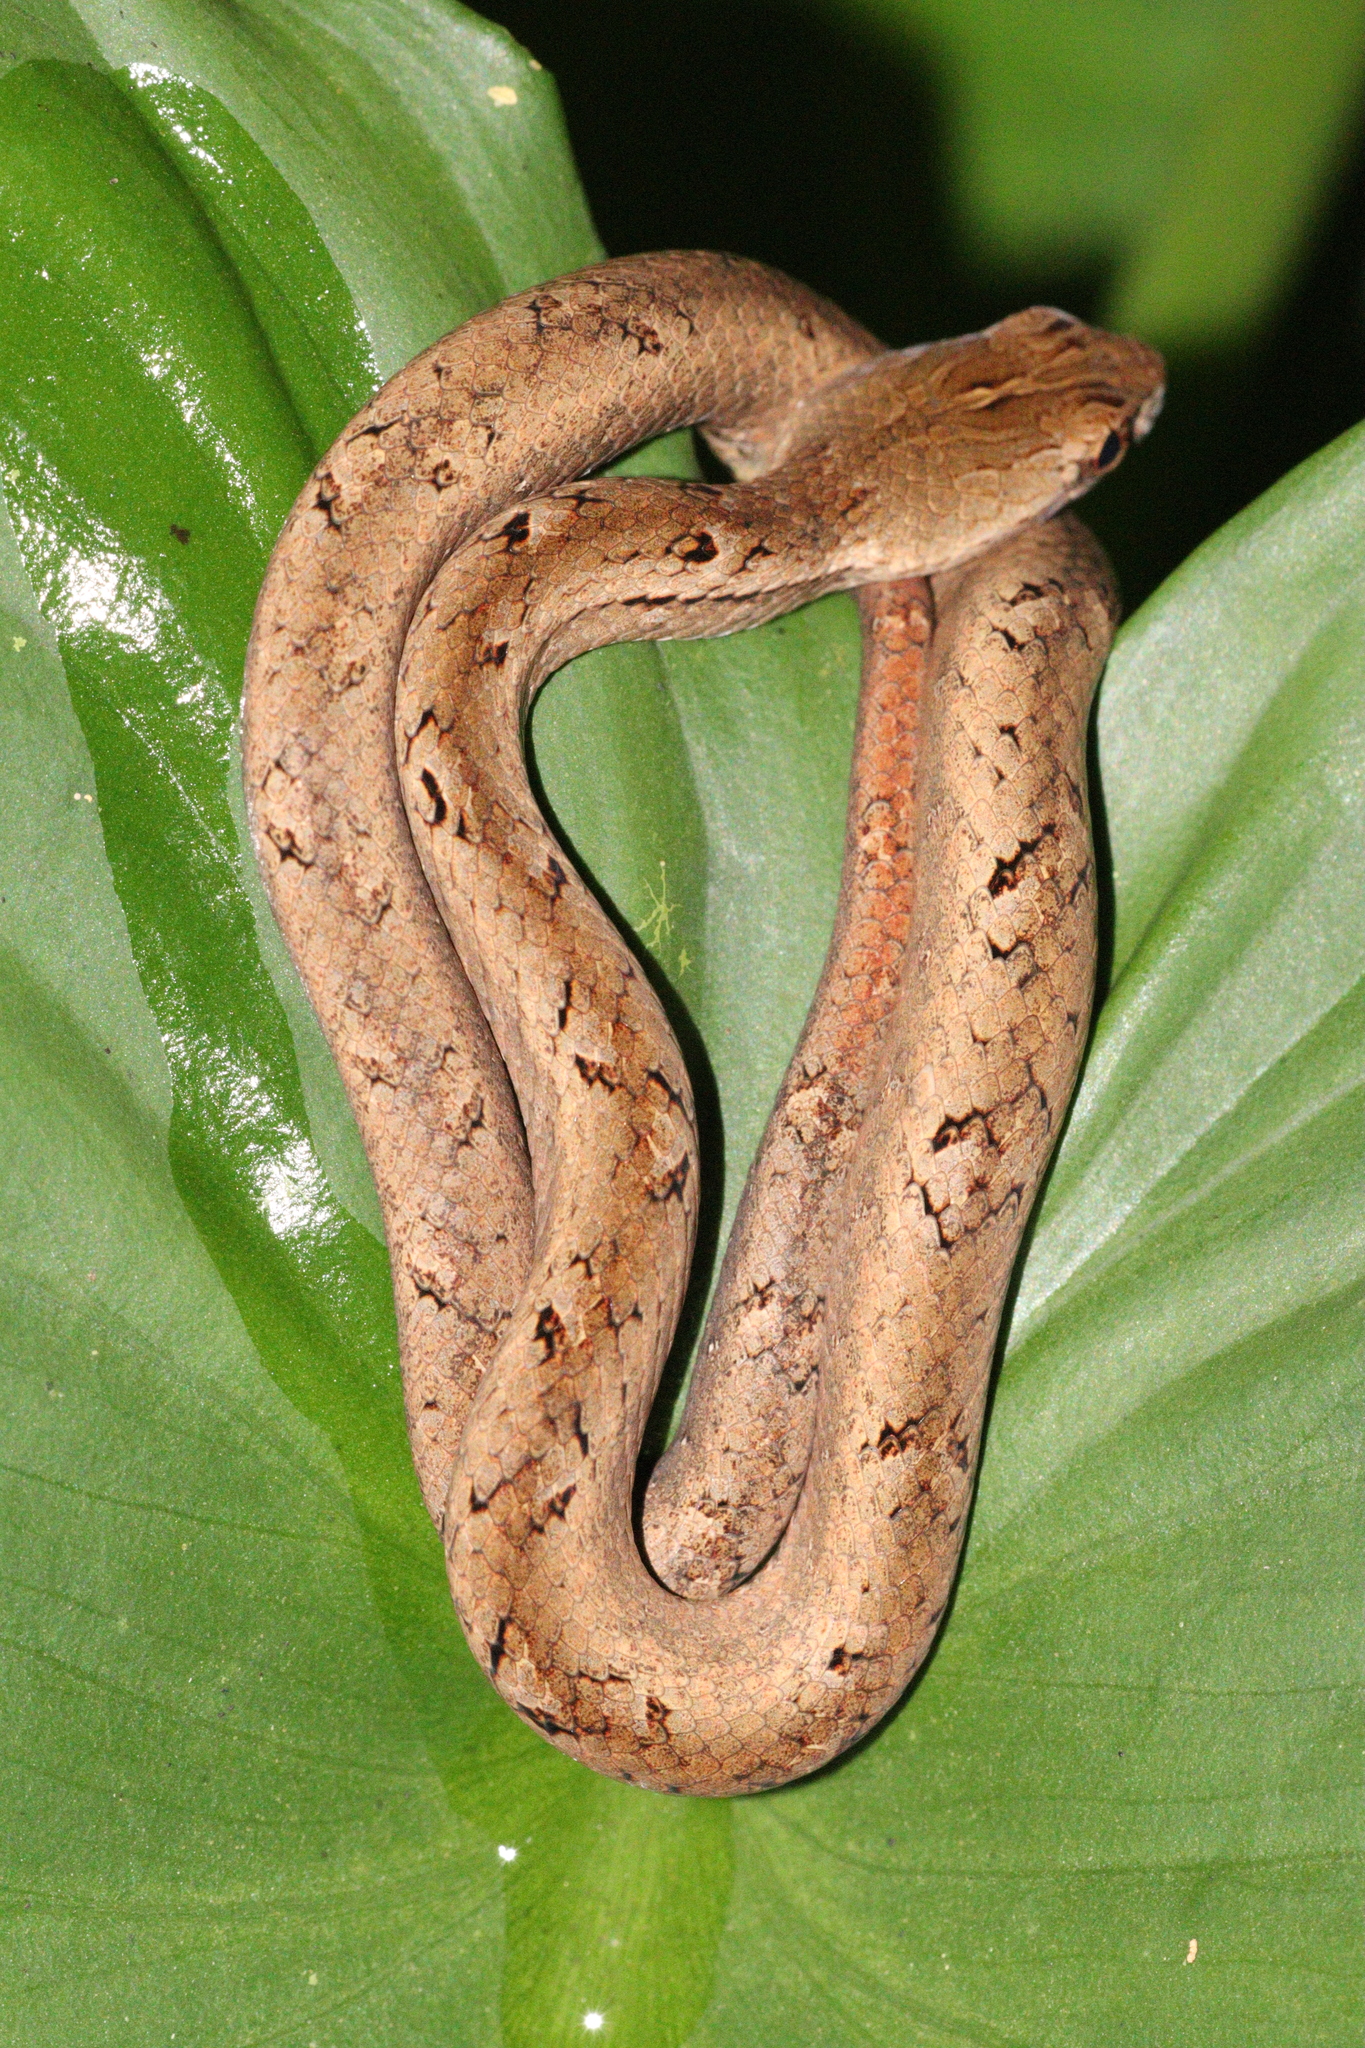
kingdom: Animalia
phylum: Chordata
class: Squamata
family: Pseudaspididae
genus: Psammodynastes
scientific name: Psammodynastes pulverulentus
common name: Common mock viper
